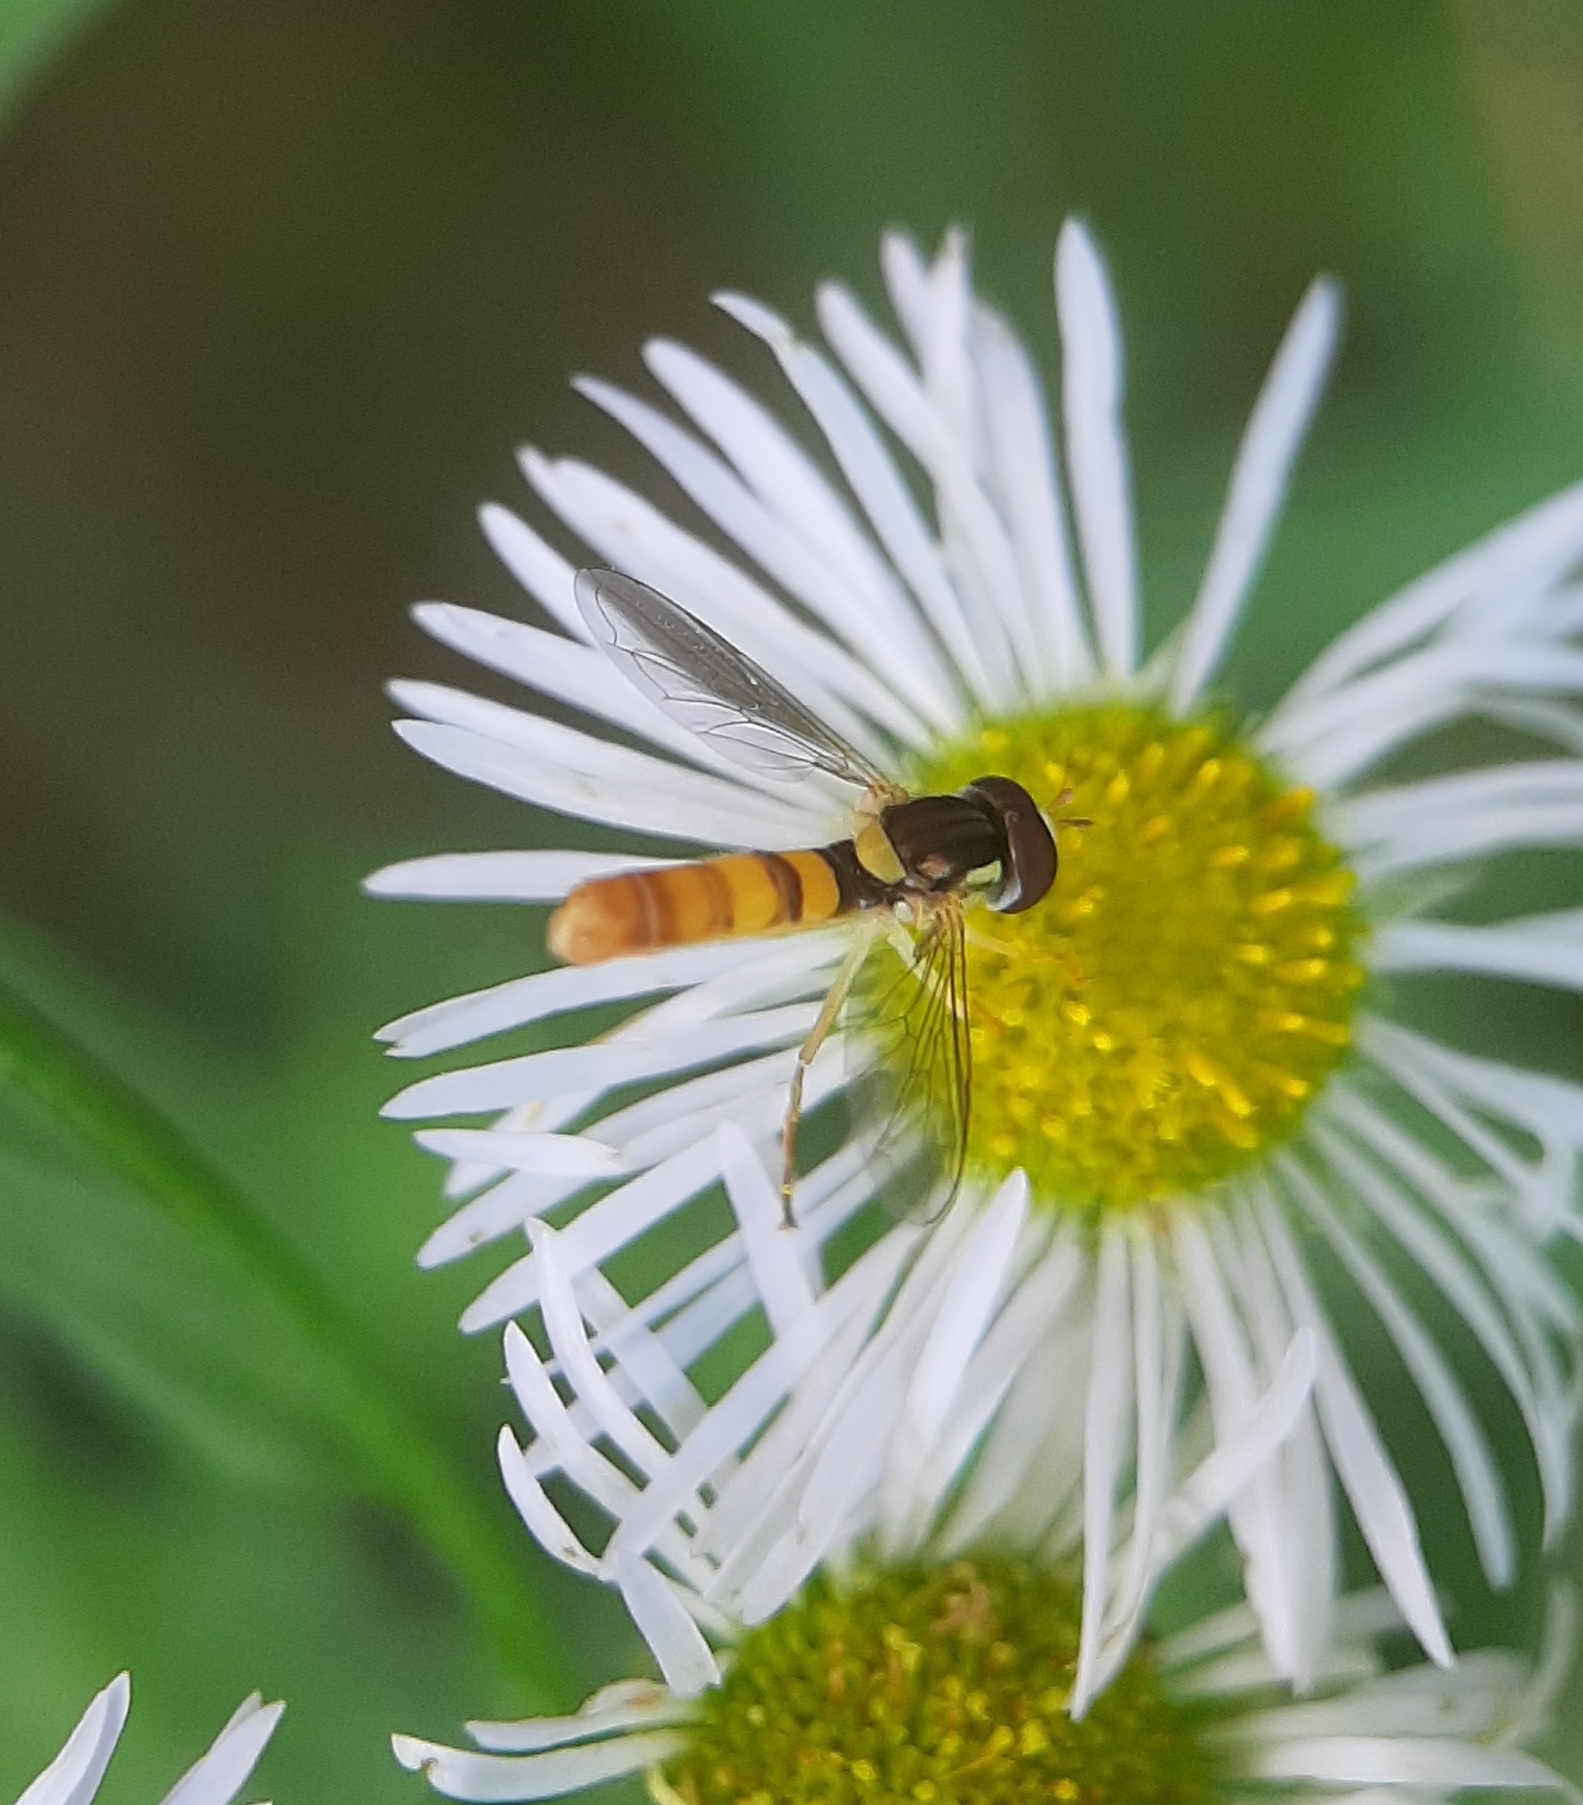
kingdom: Animalia
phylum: Arthropoda
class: Insecta
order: Diptera
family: Syrphidae
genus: Sphaerophoria
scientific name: Sphaerophoria contigua
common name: Tufted globetail
